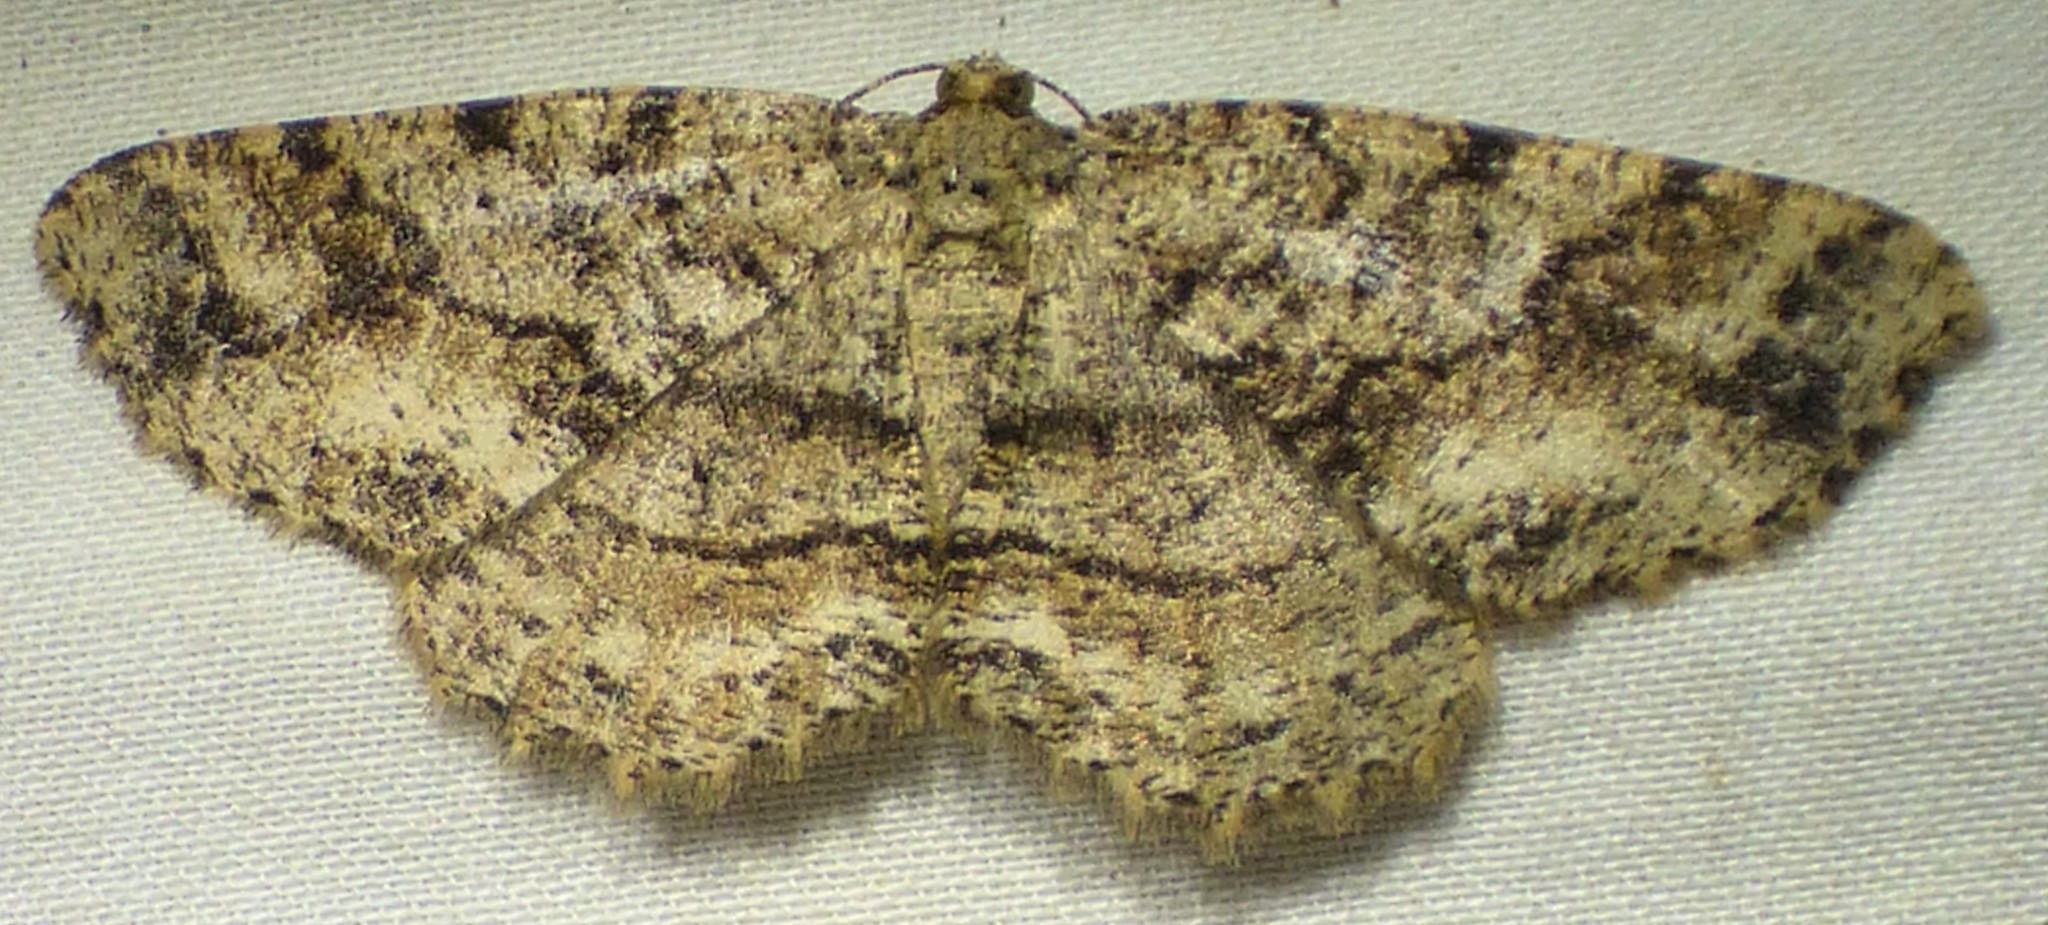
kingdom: Animalia
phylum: Arthropoda
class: Insecta
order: Lepidoptera
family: Geometridae
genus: Melanolophia
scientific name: Melanolophia canadaria
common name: Canadian melanolophia
